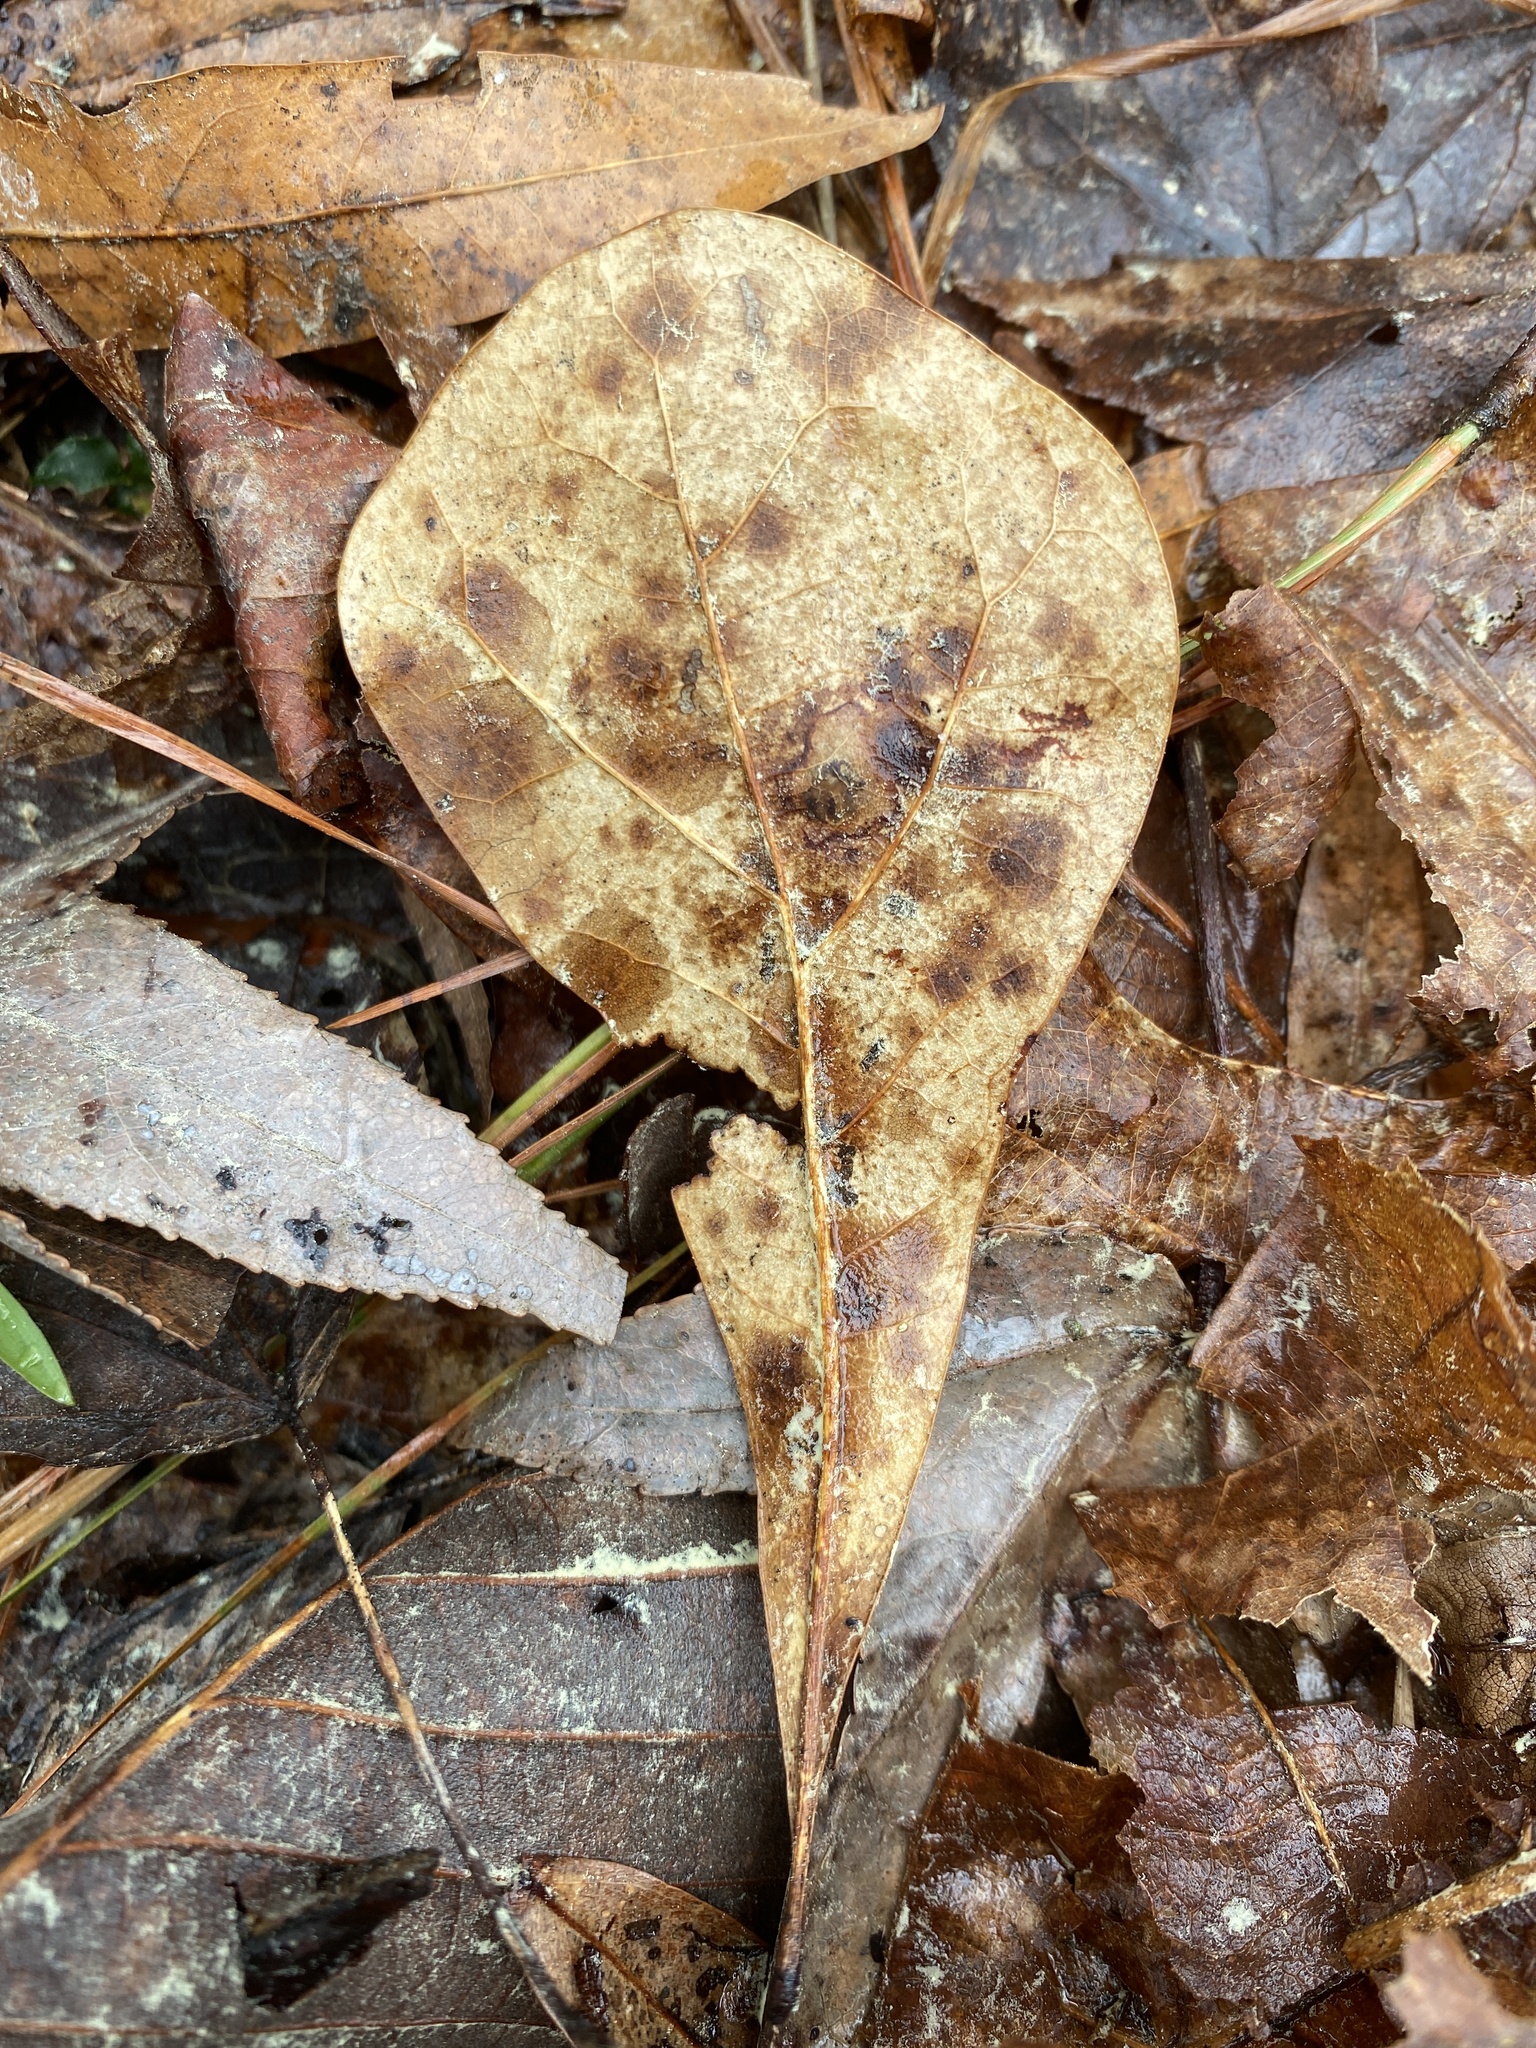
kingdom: Plantae
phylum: Tracheophyta
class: Magnoliopsida
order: Fagales
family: Fagaceae
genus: Quercus
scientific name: Quercus nigra
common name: Water oak
